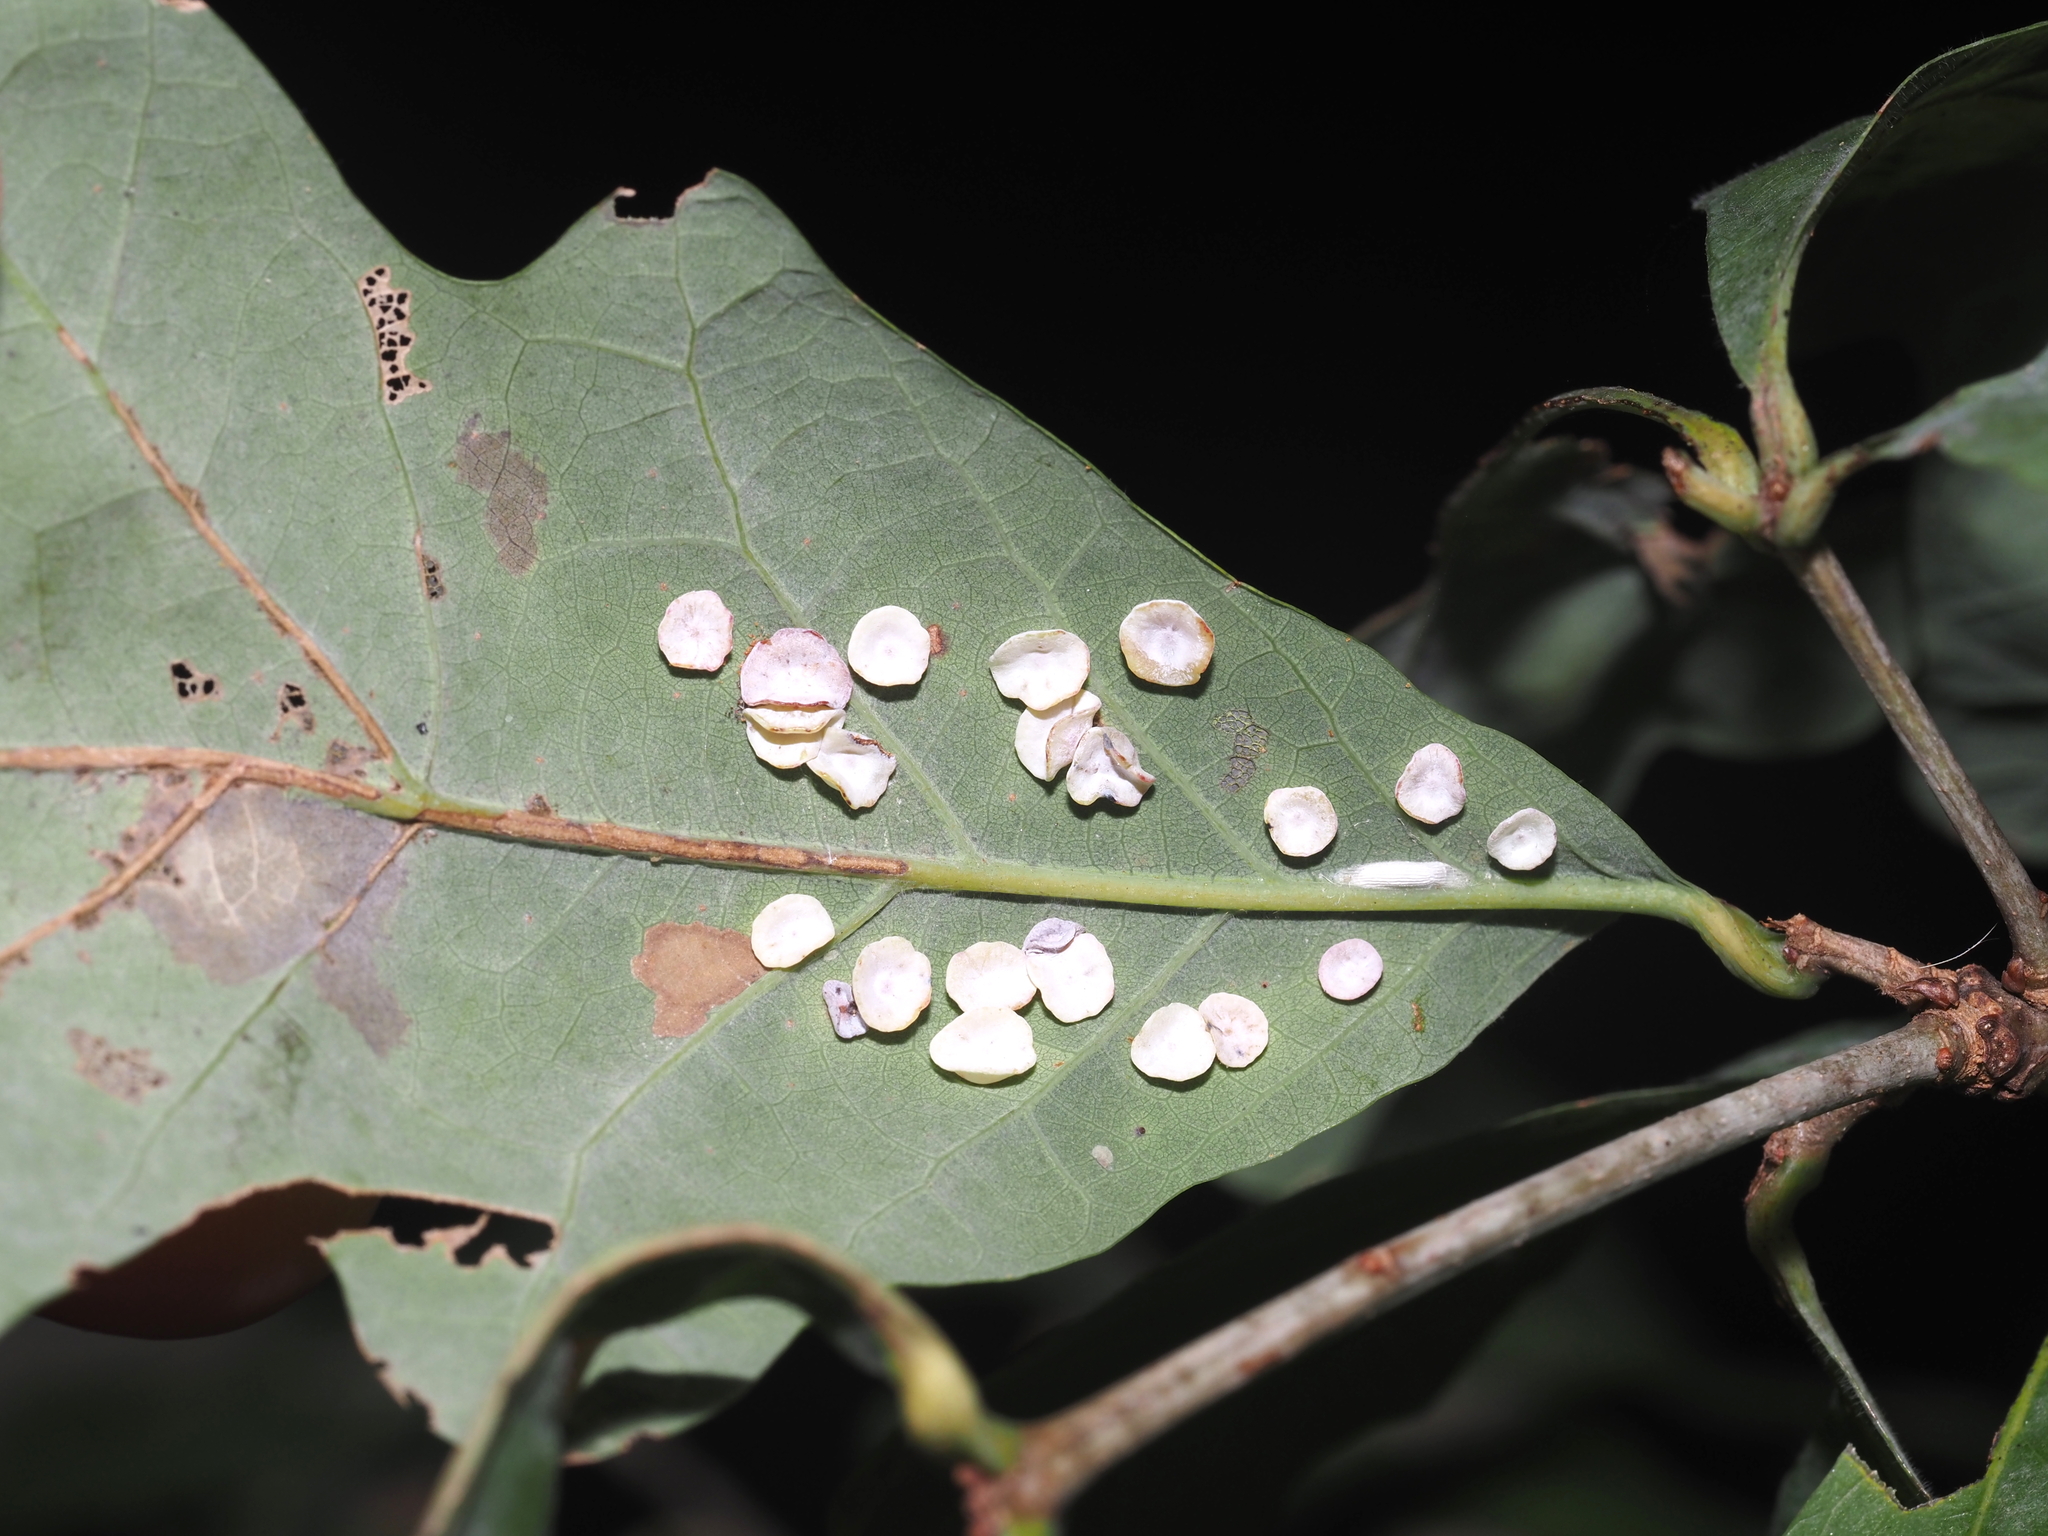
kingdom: Animalia
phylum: Arthropoda
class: Insecta
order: Hymenoptera
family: Cynipidae
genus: Phylloteras
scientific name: Phylloteras poculum
